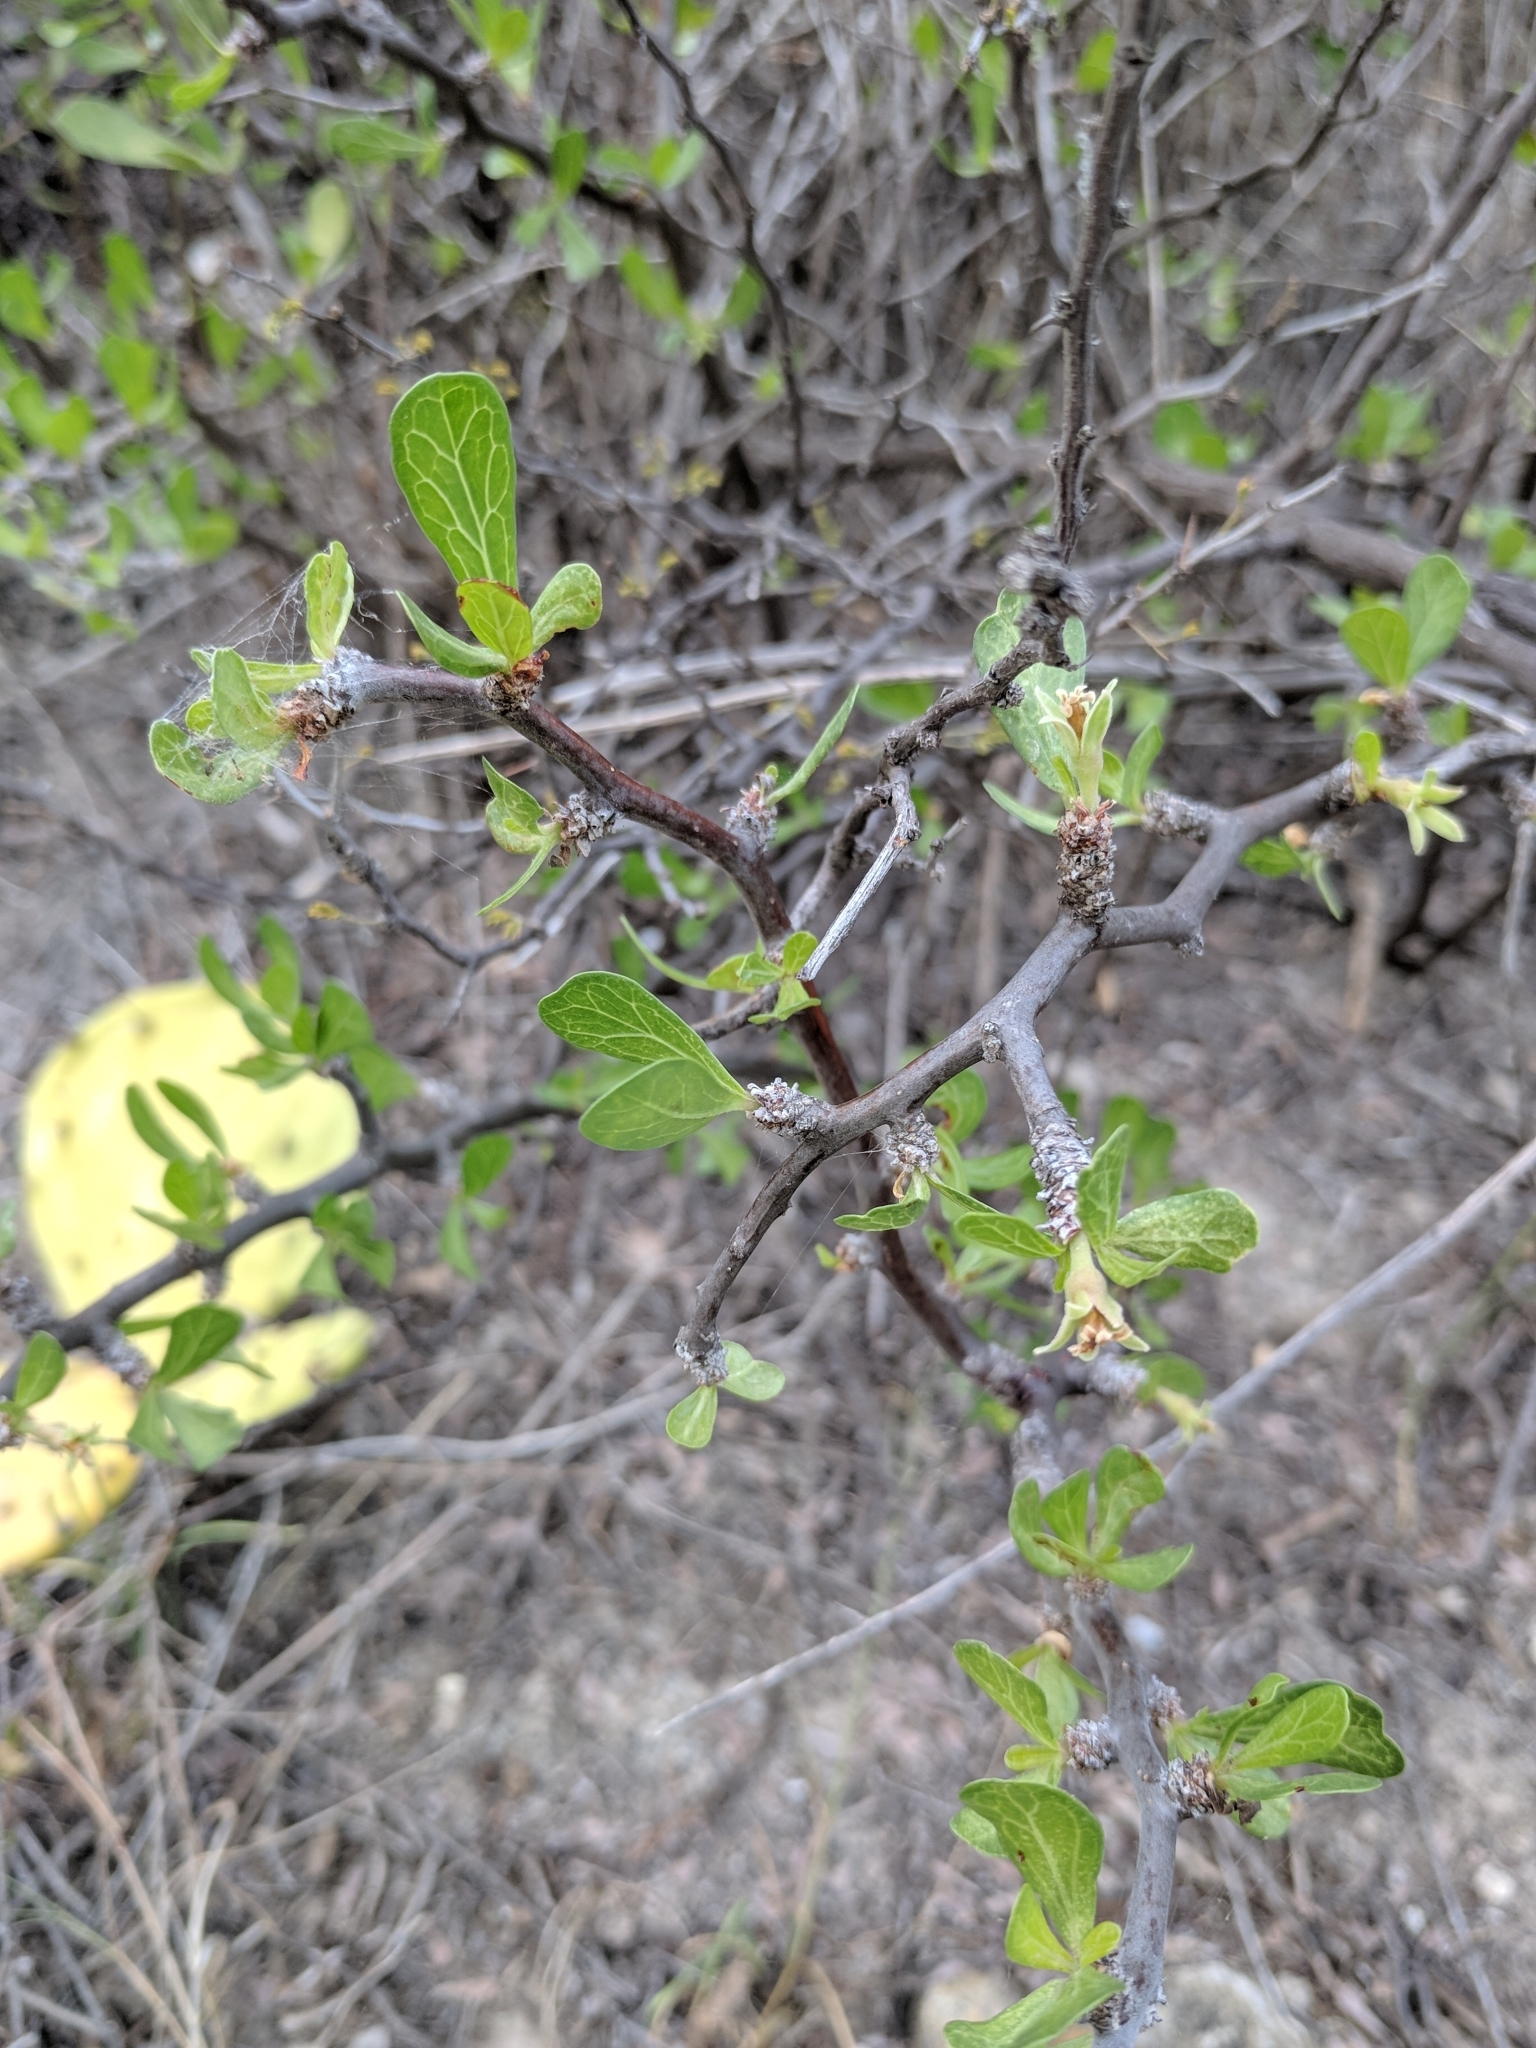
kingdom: Plantae
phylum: Tracheophyta
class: Magnoliopsida
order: Malpighiales
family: Euphorbiaceae
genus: Jatropha
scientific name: Jatropha dioica
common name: Leatherstem
